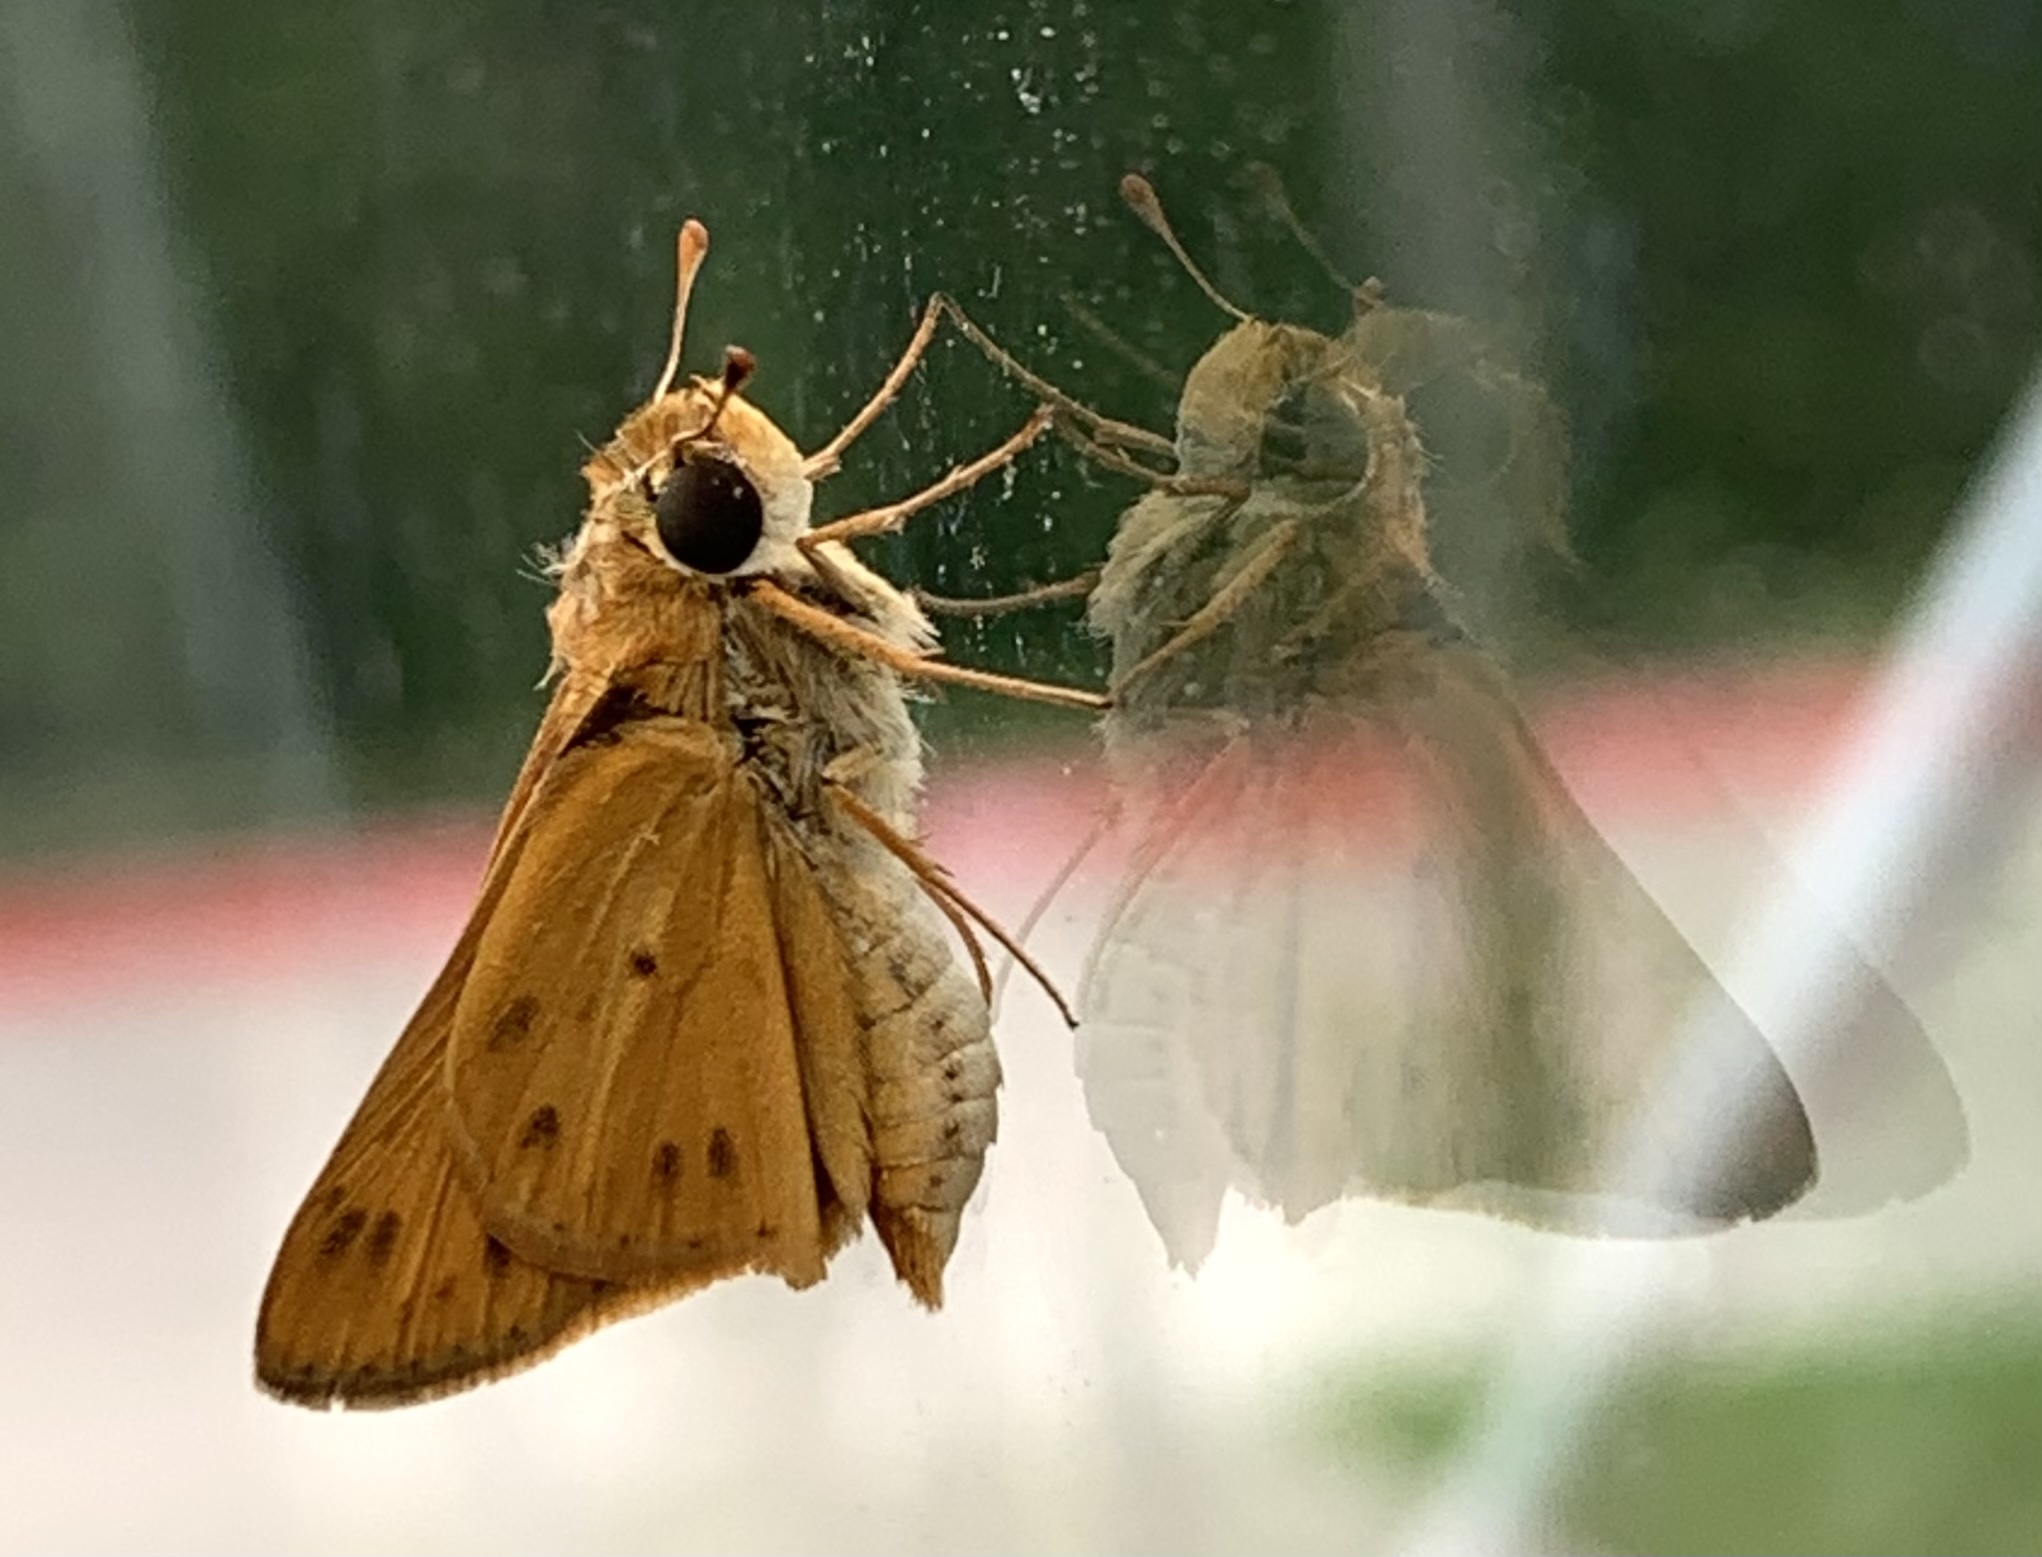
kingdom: Animalia
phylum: Arthropoda
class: Insecta
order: Lepidoptera
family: Hesperiidae
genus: Hylephila
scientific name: Hylephila phyleus
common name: Fiery skipper
